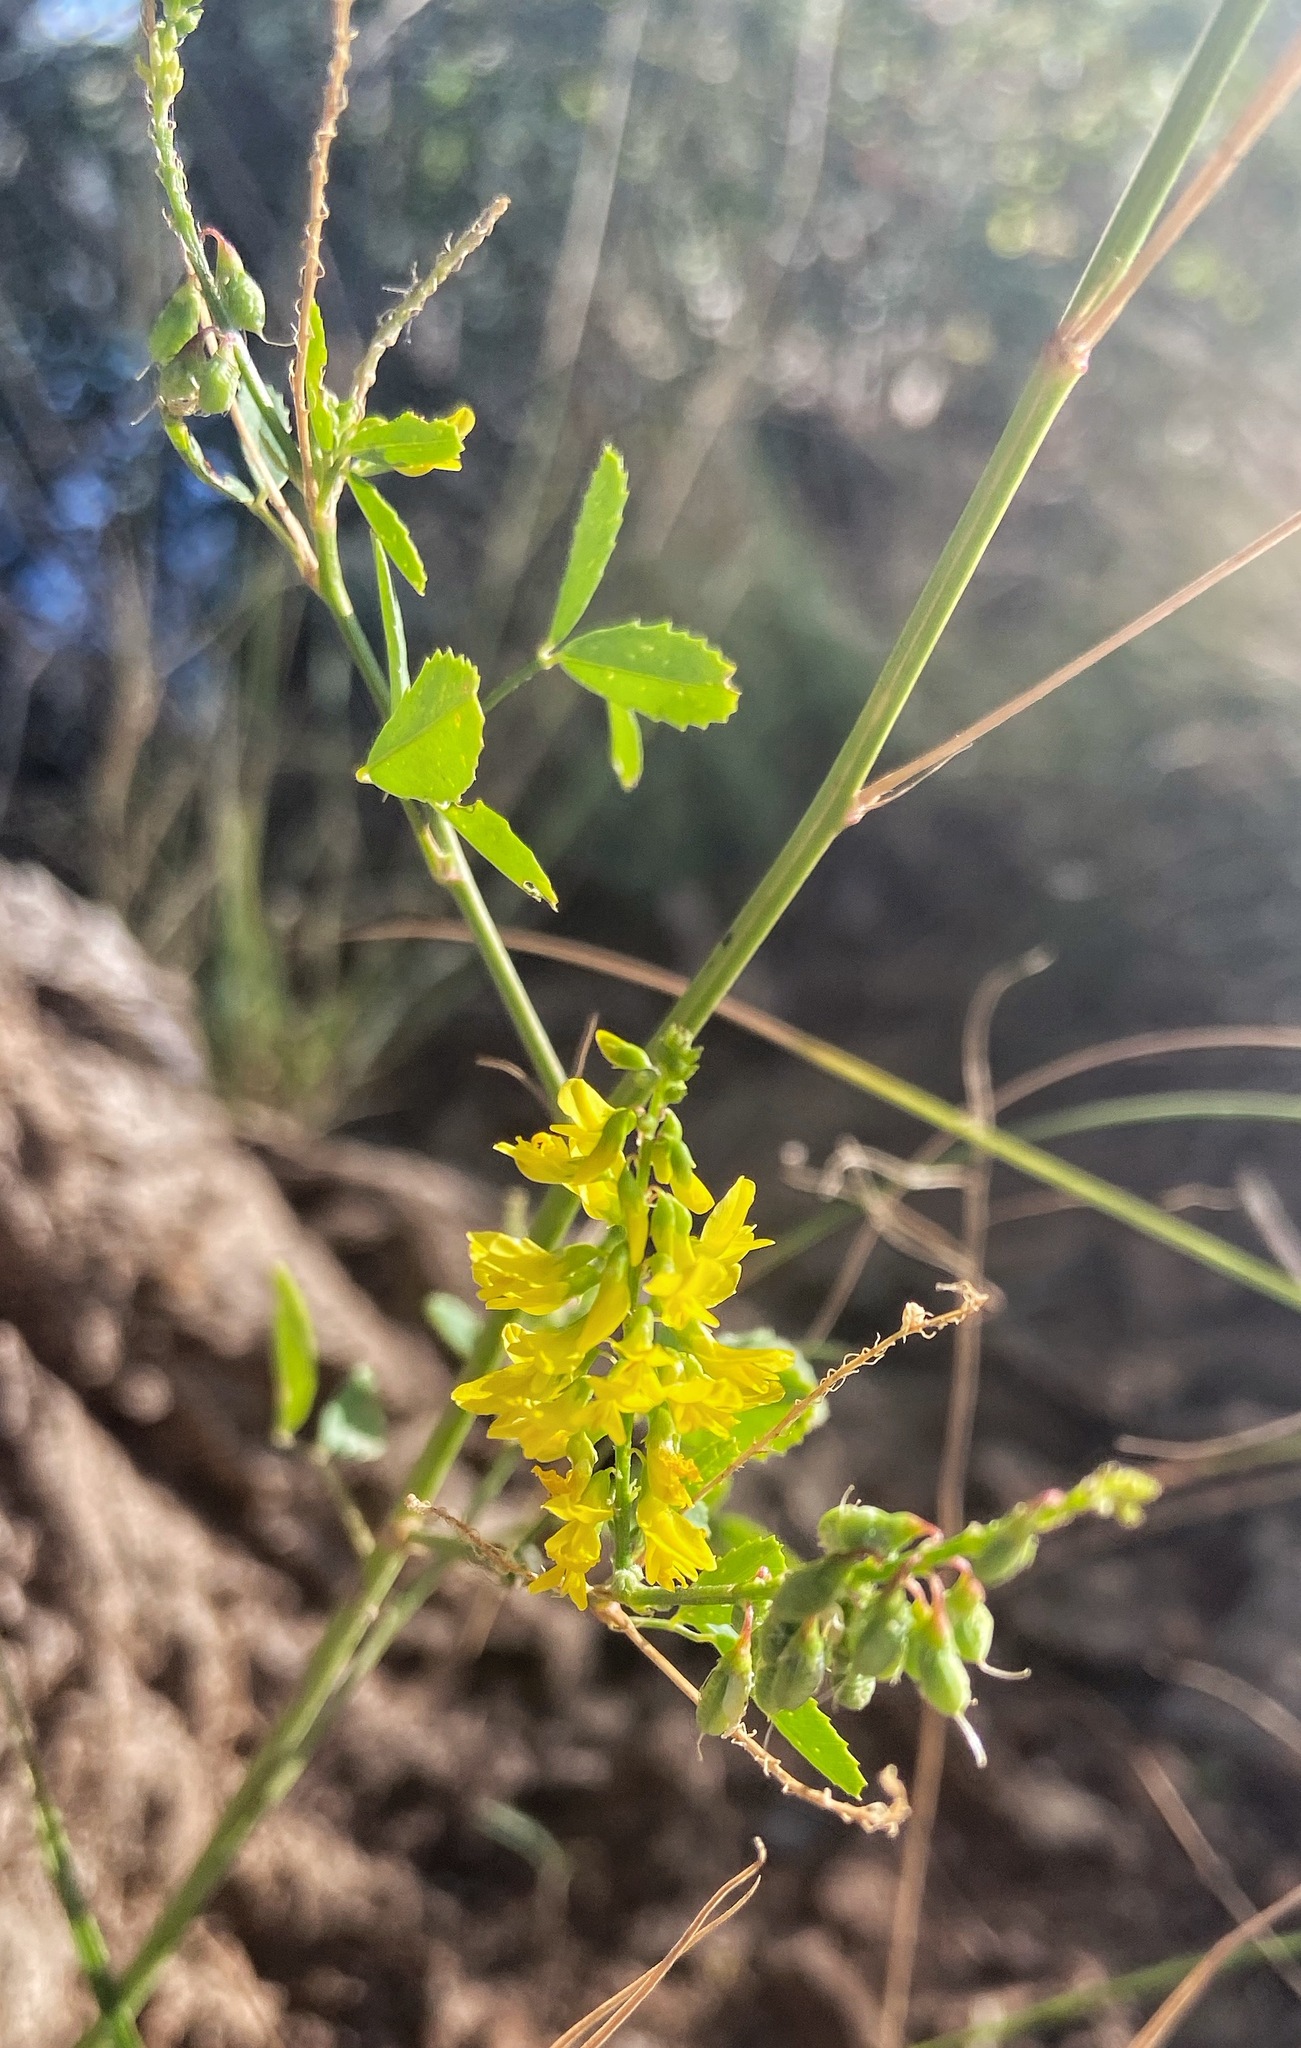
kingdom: Plantae
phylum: Tracheophyta
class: Magnoliopsida
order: Fabales
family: Fabaceae
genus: Melilotus
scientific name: Melilotus officinalis
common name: Sweetclover
